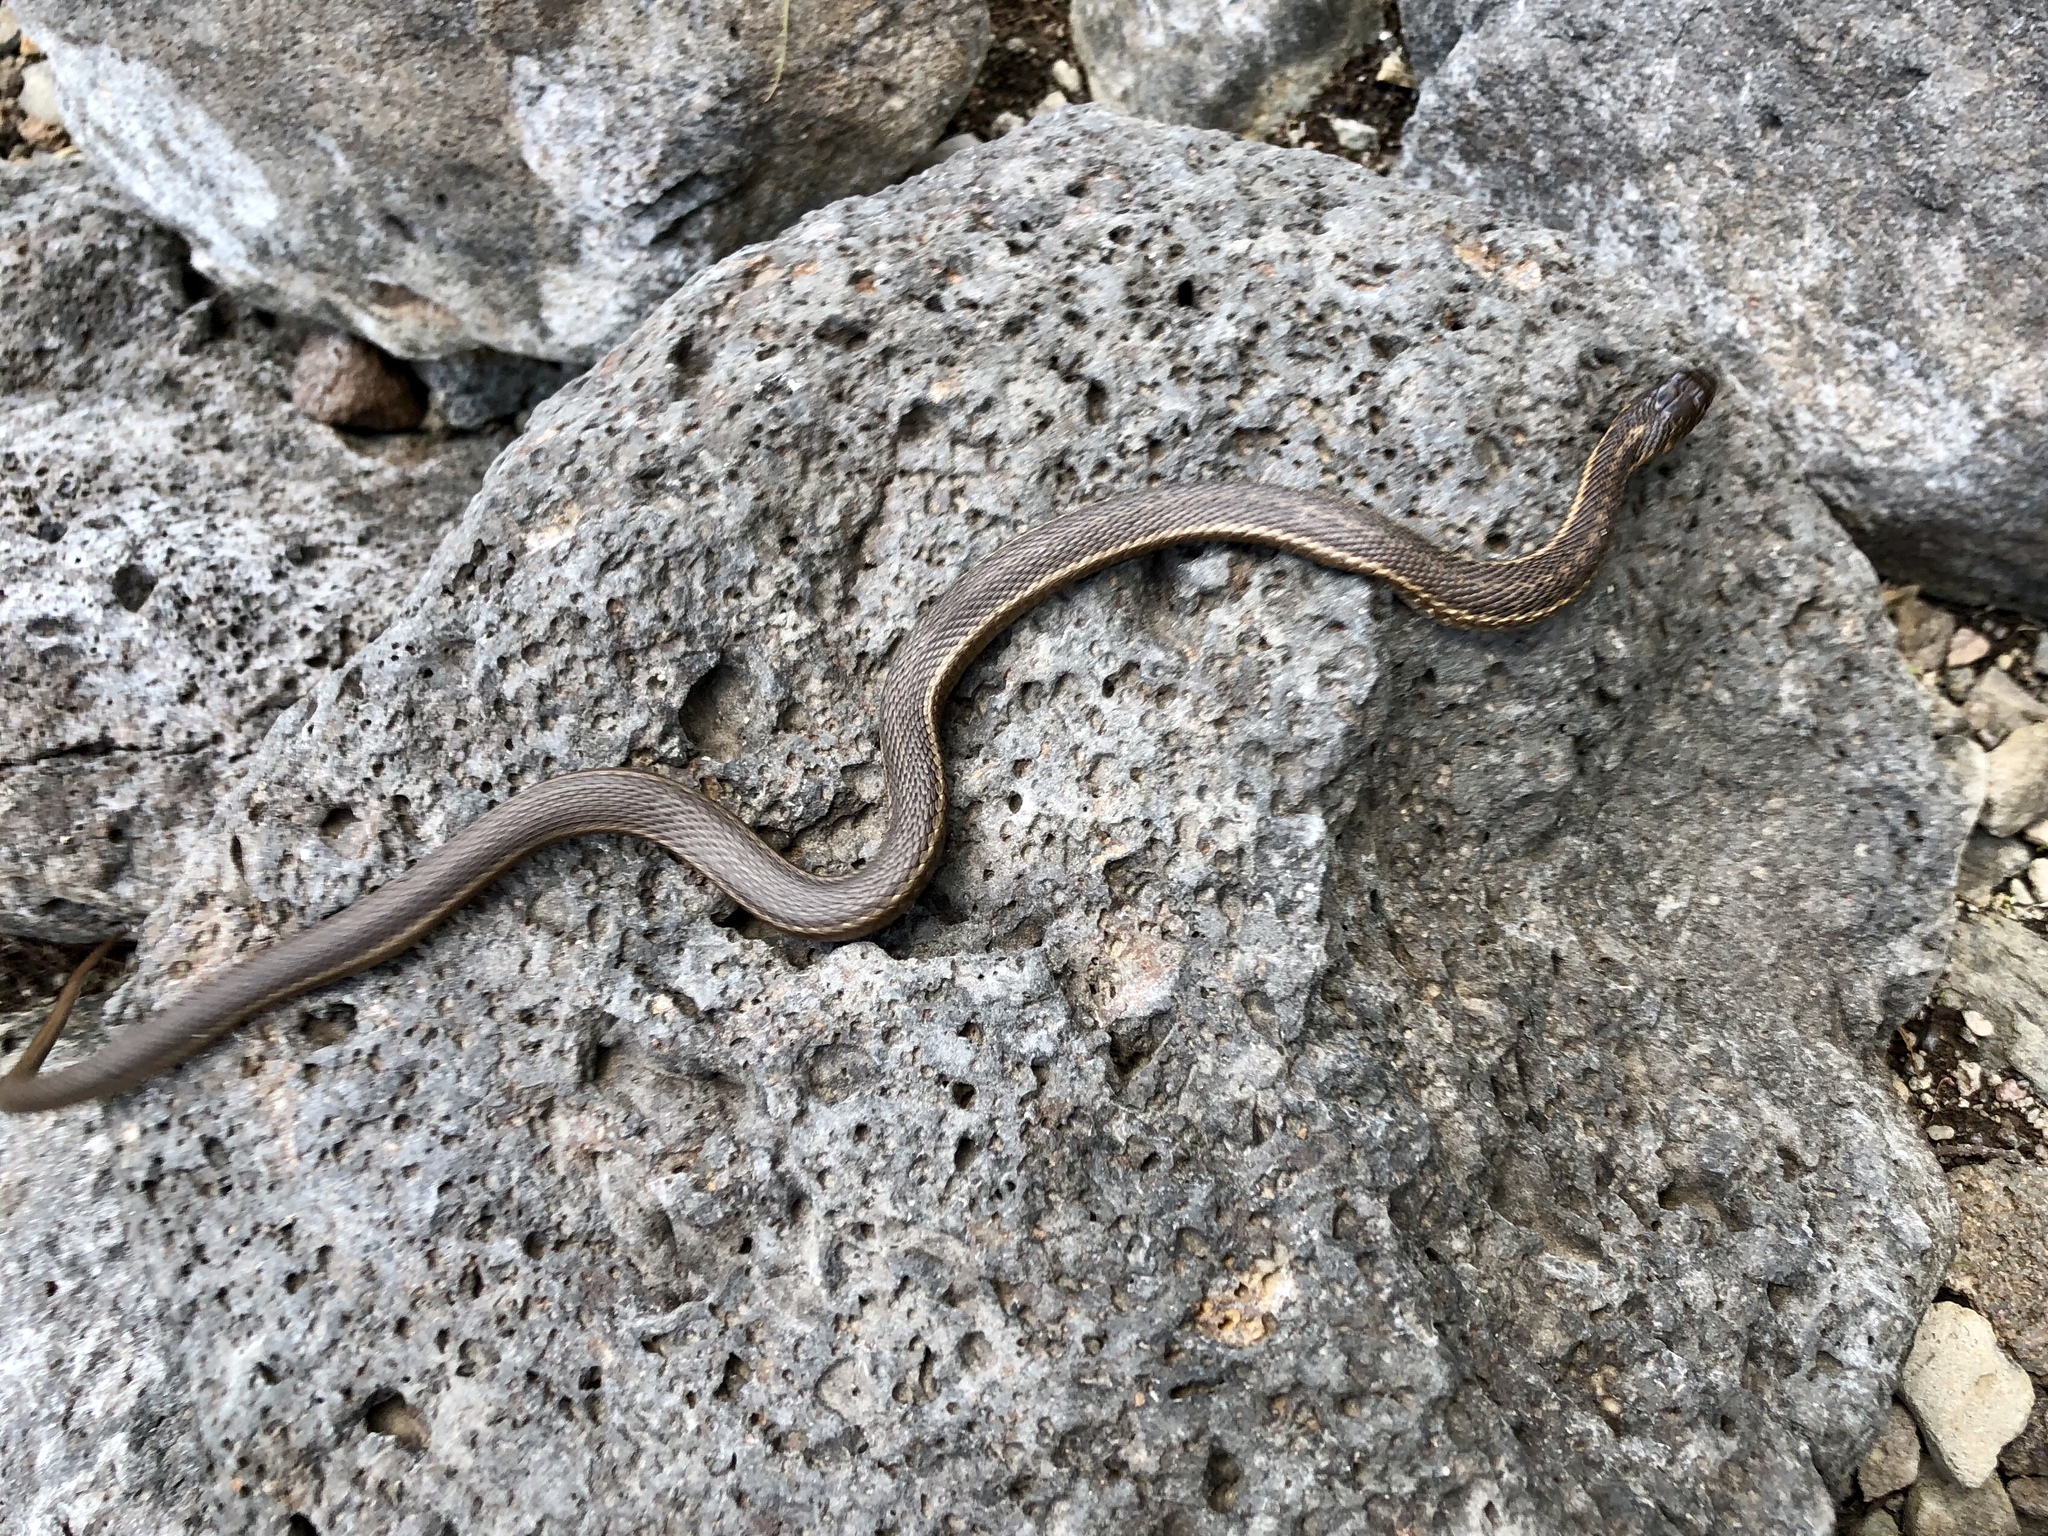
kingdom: Animalia
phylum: Chordata
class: Squamata
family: Colubridae
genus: Thamnophis
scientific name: Thamnophis elegans
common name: Western terrestrial garter snake
